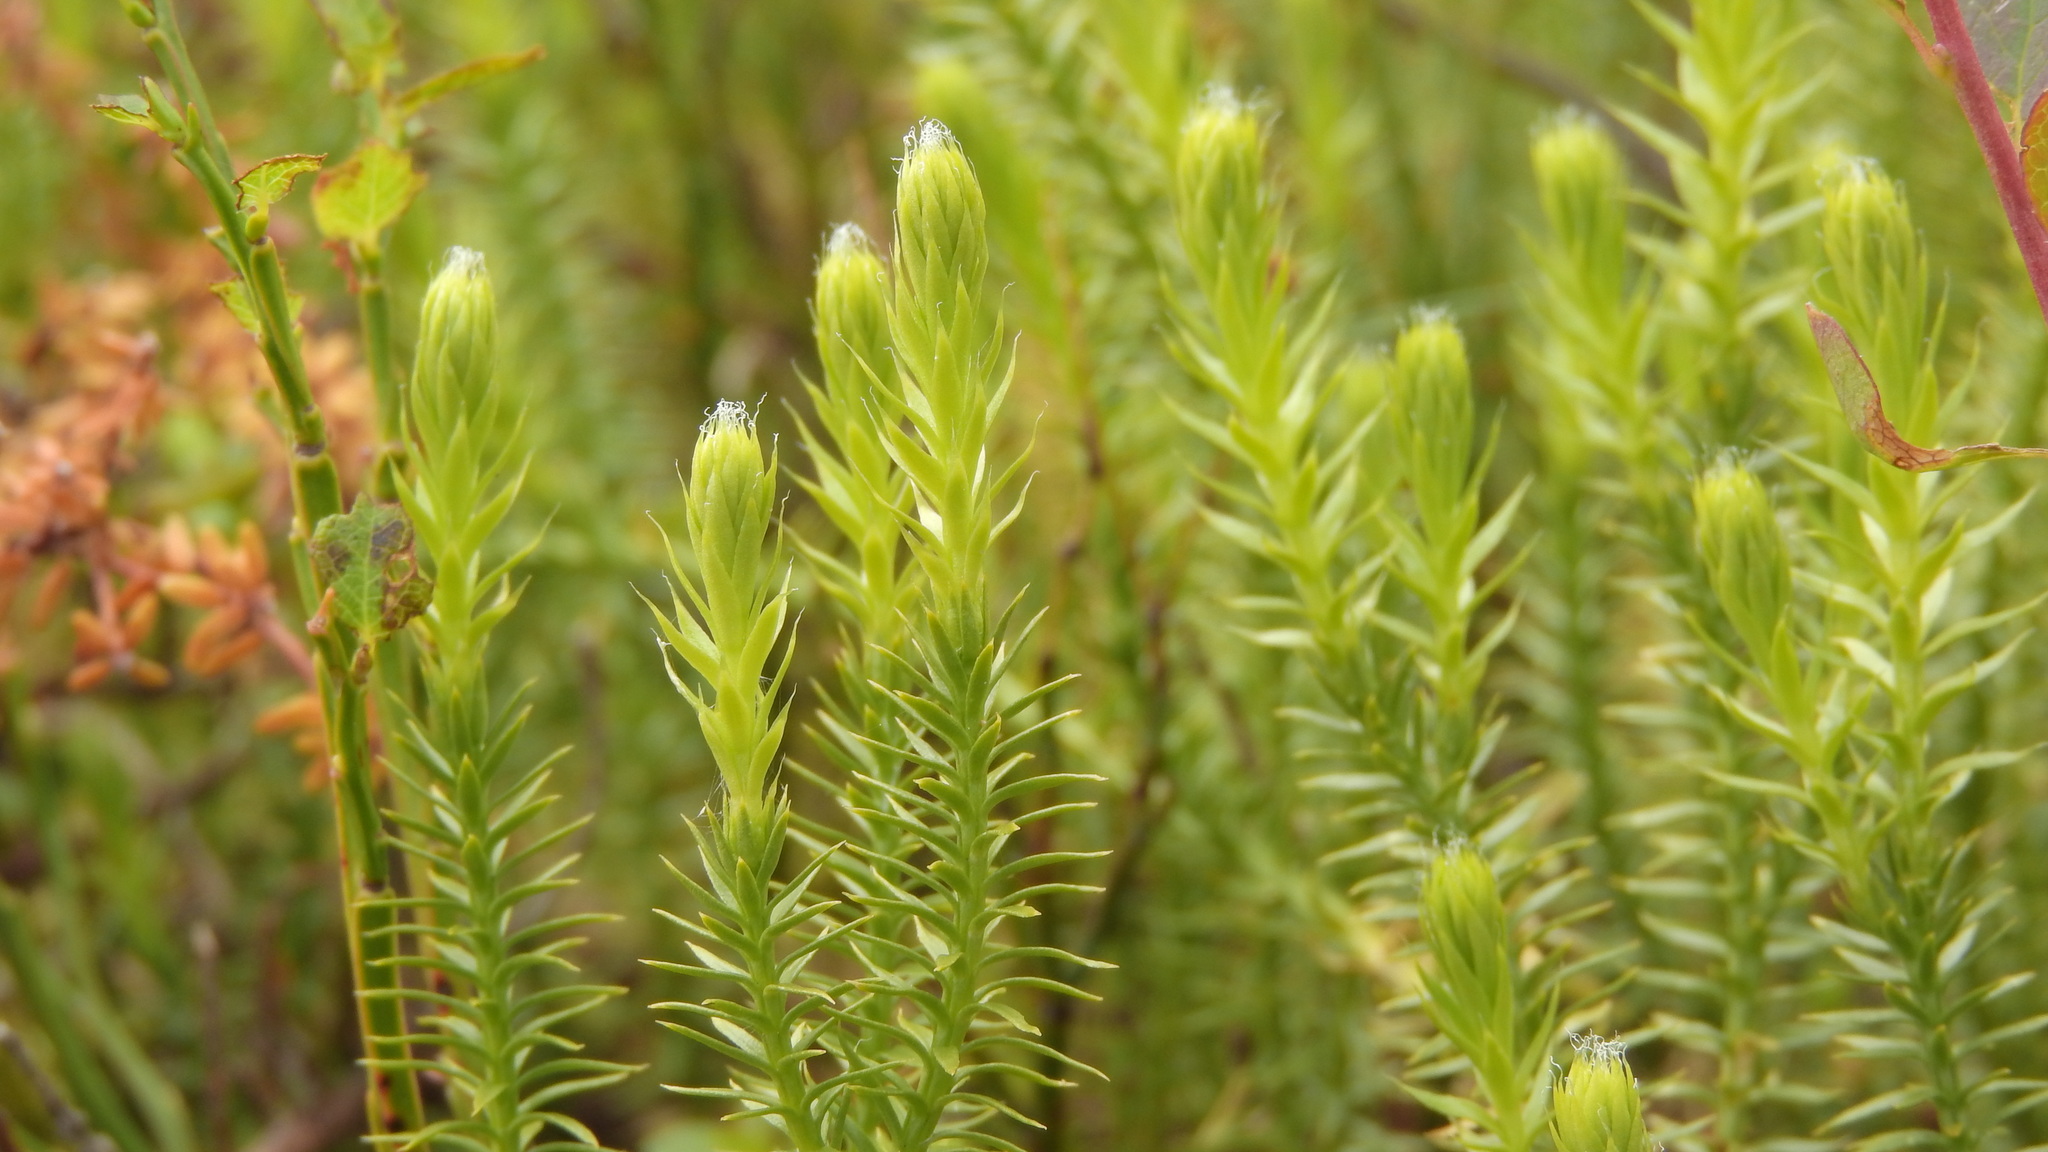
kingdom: Plantae
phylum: Tracheophyta
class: Lycopodiopsida
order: Lycopodiales
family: Lycopodiaceae
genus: Spinulum
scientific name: Spinulum annotinum
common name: Interrupted club-moss
